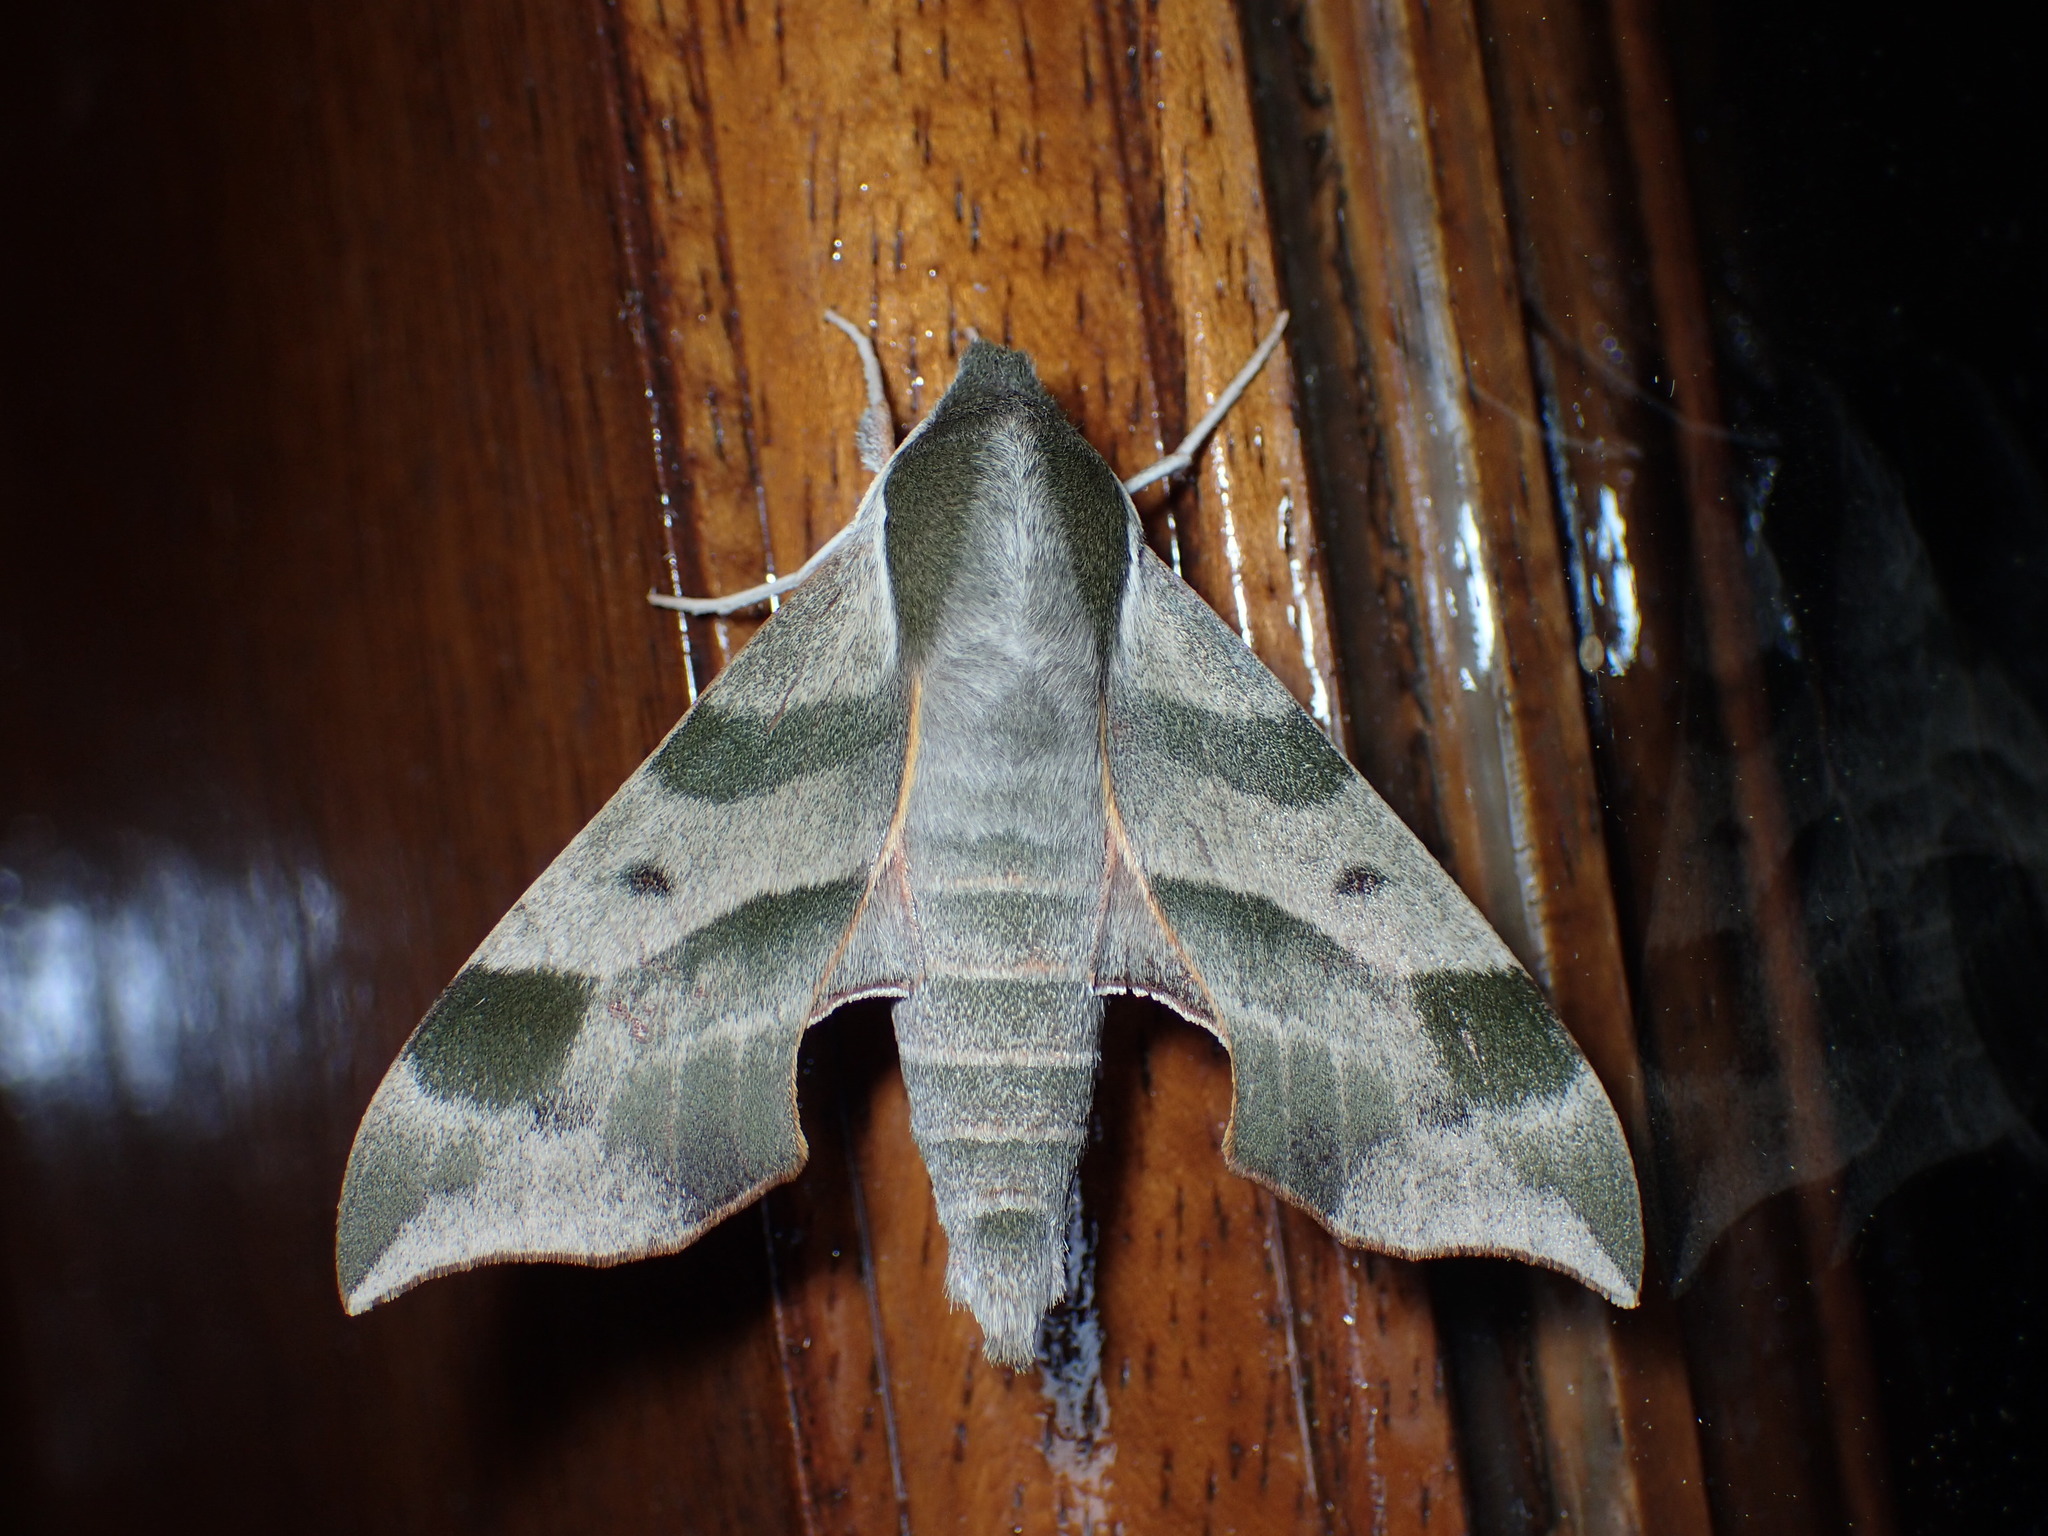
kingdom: Animalia
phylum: Arthropoda
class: Insecta
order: Lepidoptera
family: Sphingidae
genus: Darapsa
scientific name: Darapsa myron
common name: Hog sphinx
